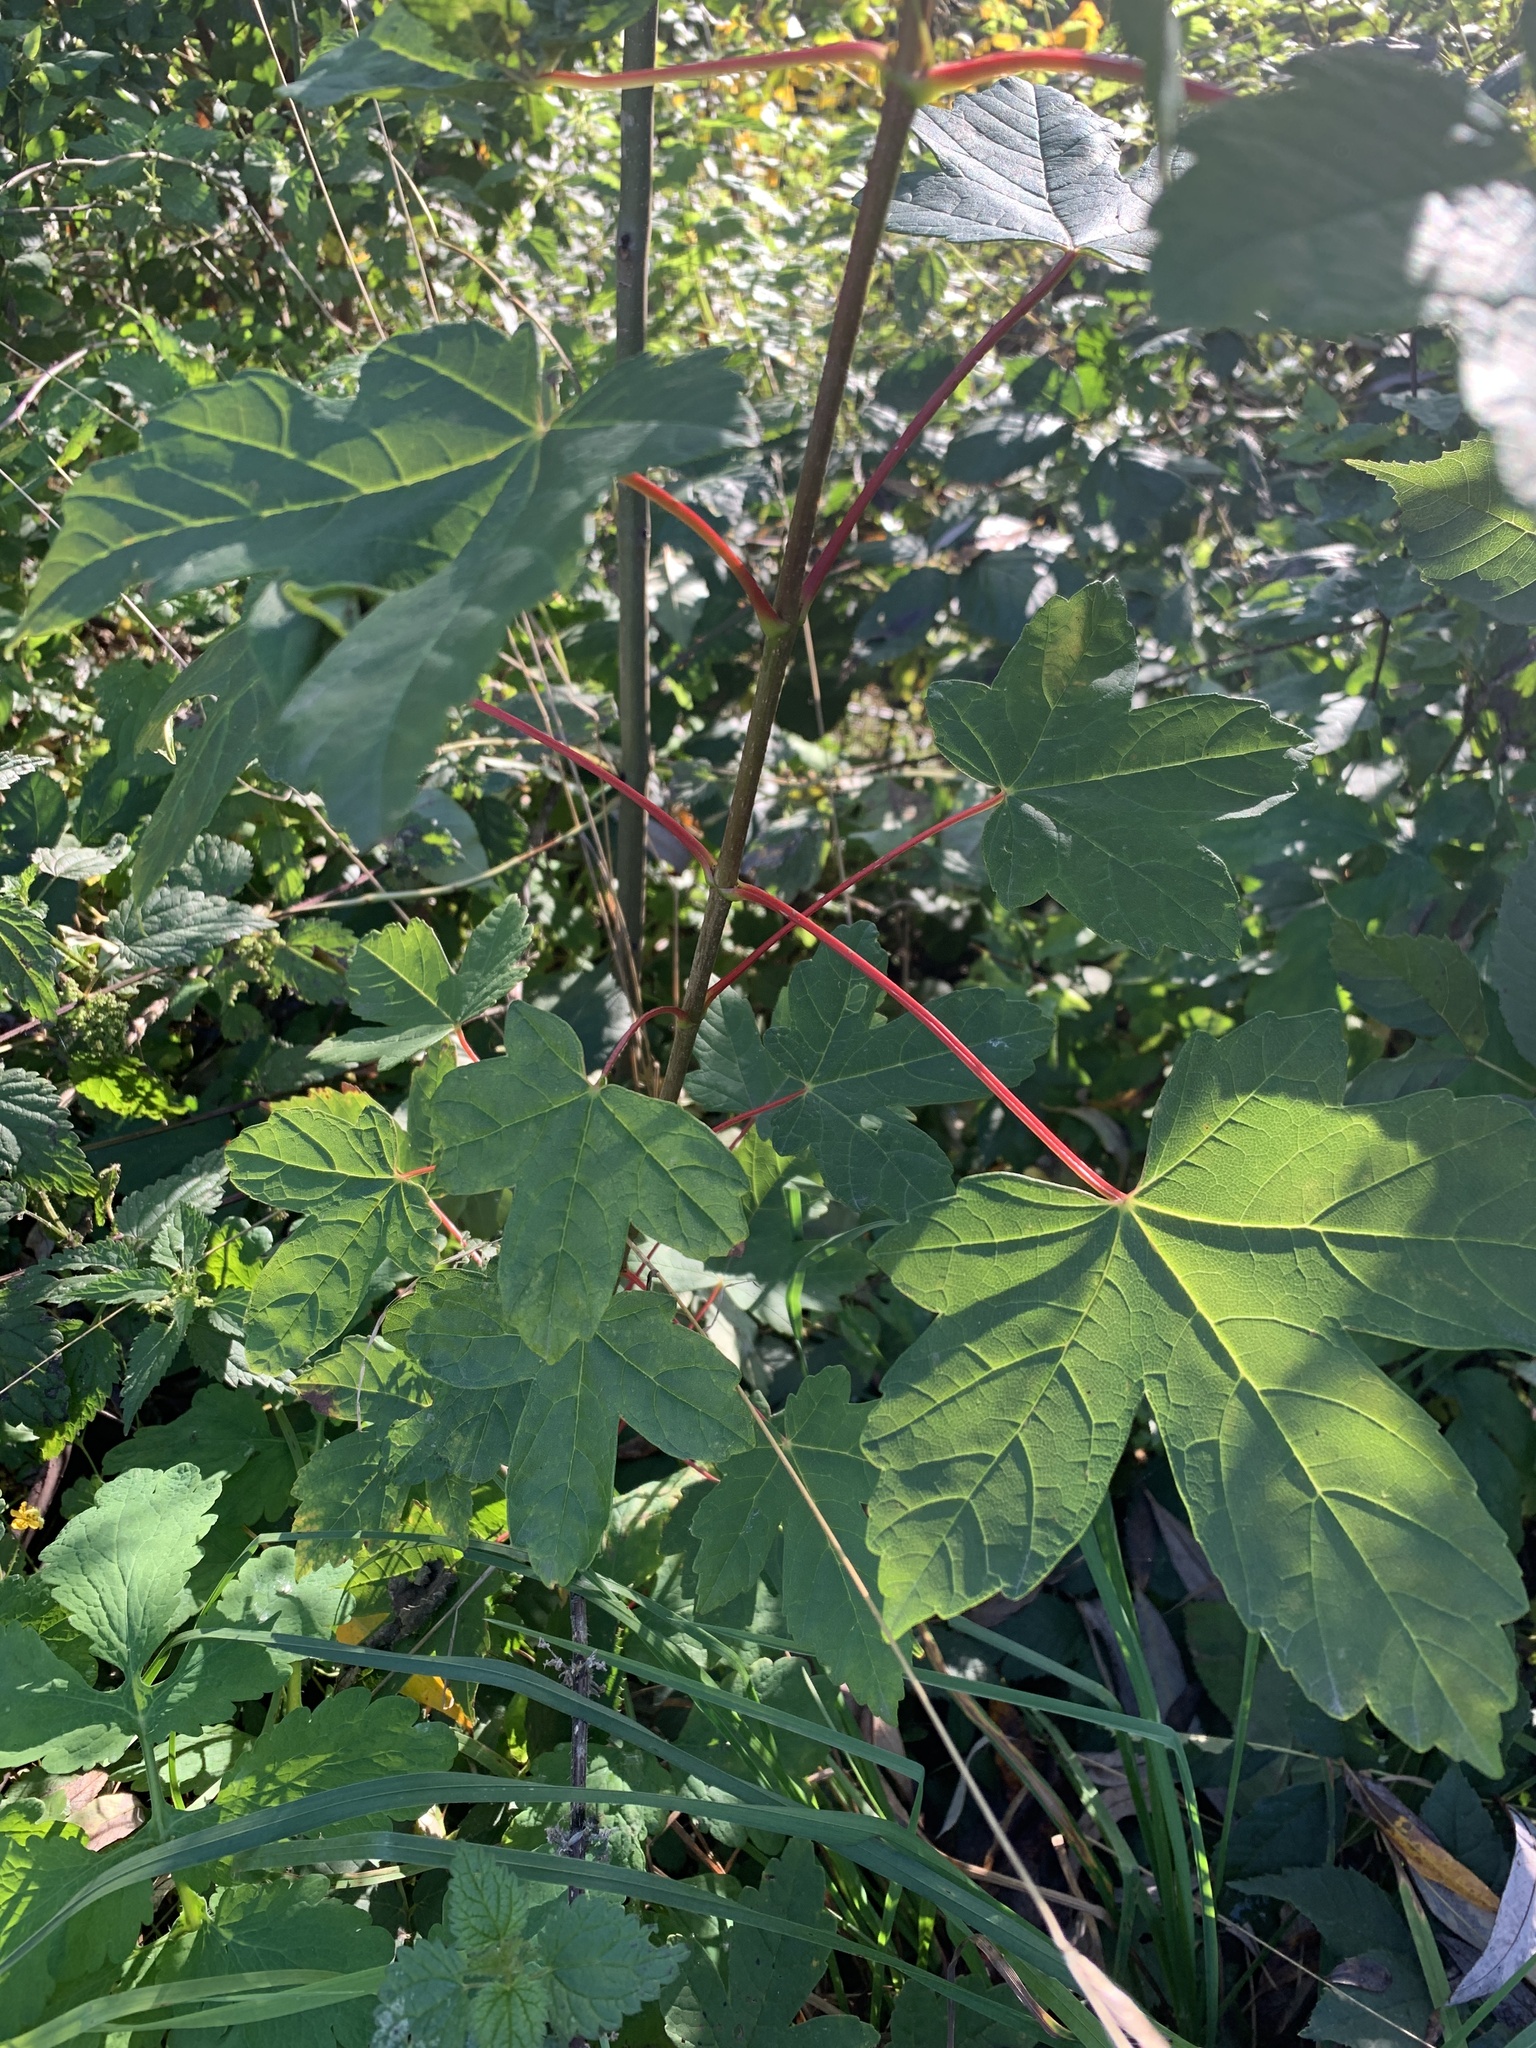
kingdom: Plantae
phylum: Tracheophyta
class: Magnoliopsida
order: Sapindales
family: Sapindaceae
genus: Acer
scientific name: Acer pseudoplatanus
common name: Sycamore
